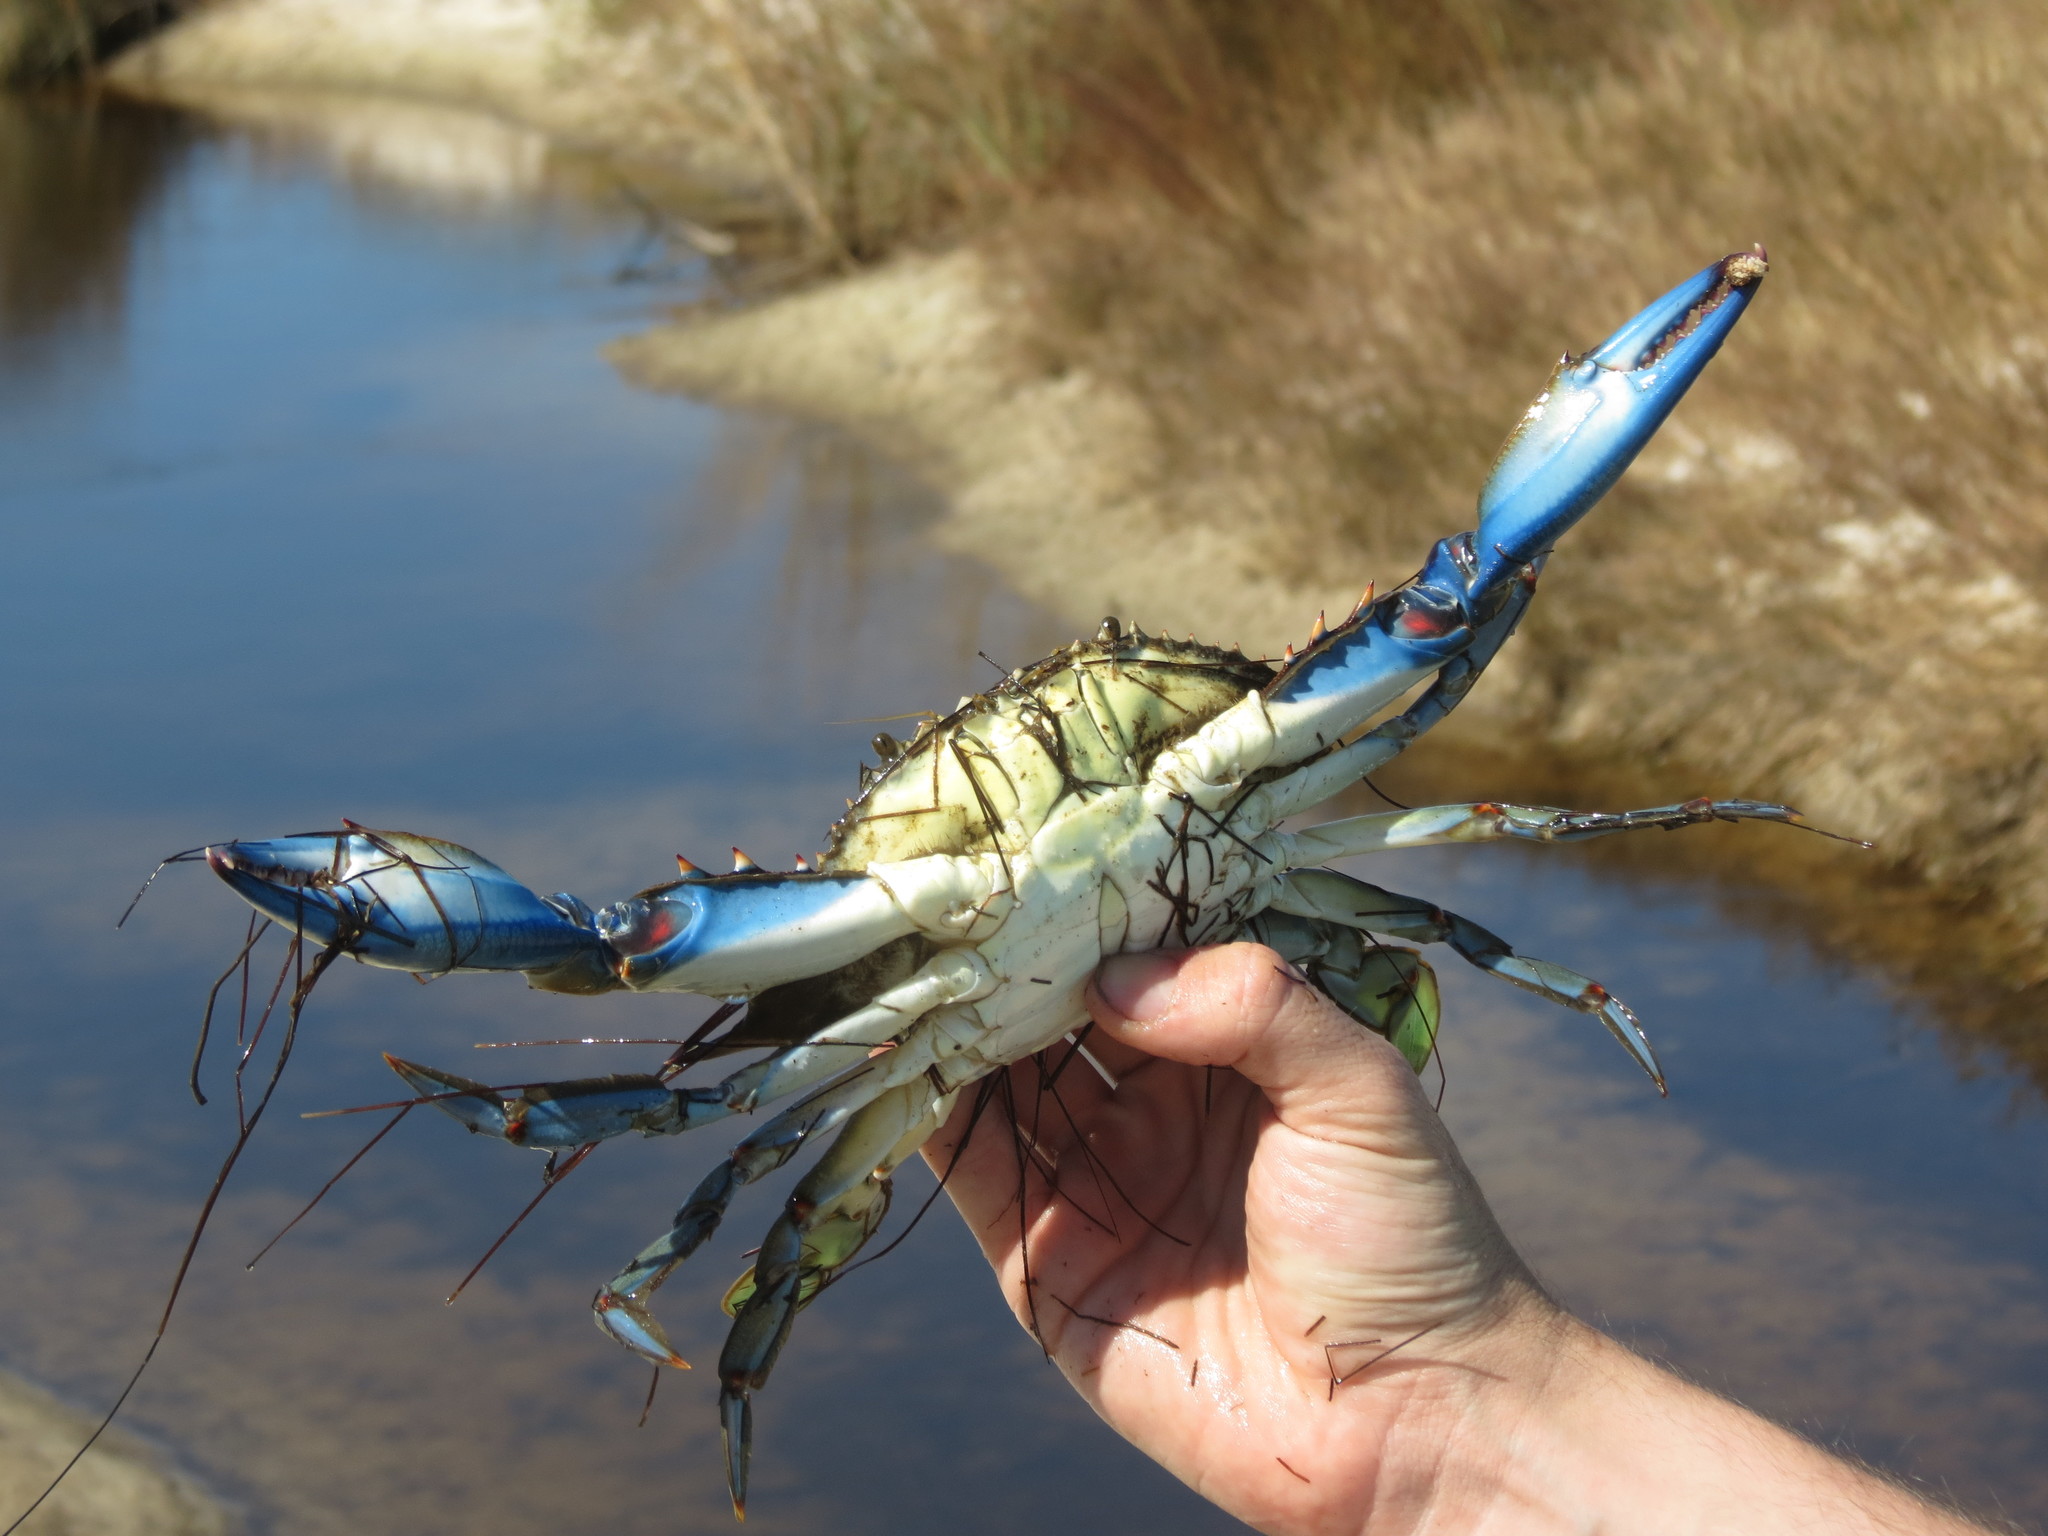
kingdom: Animalia
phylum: Arthropoda
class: Malacostraca
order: Decapoda
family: Portunidae
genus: Callinectes
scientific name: Callinectes sapidus
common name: Blue crab
